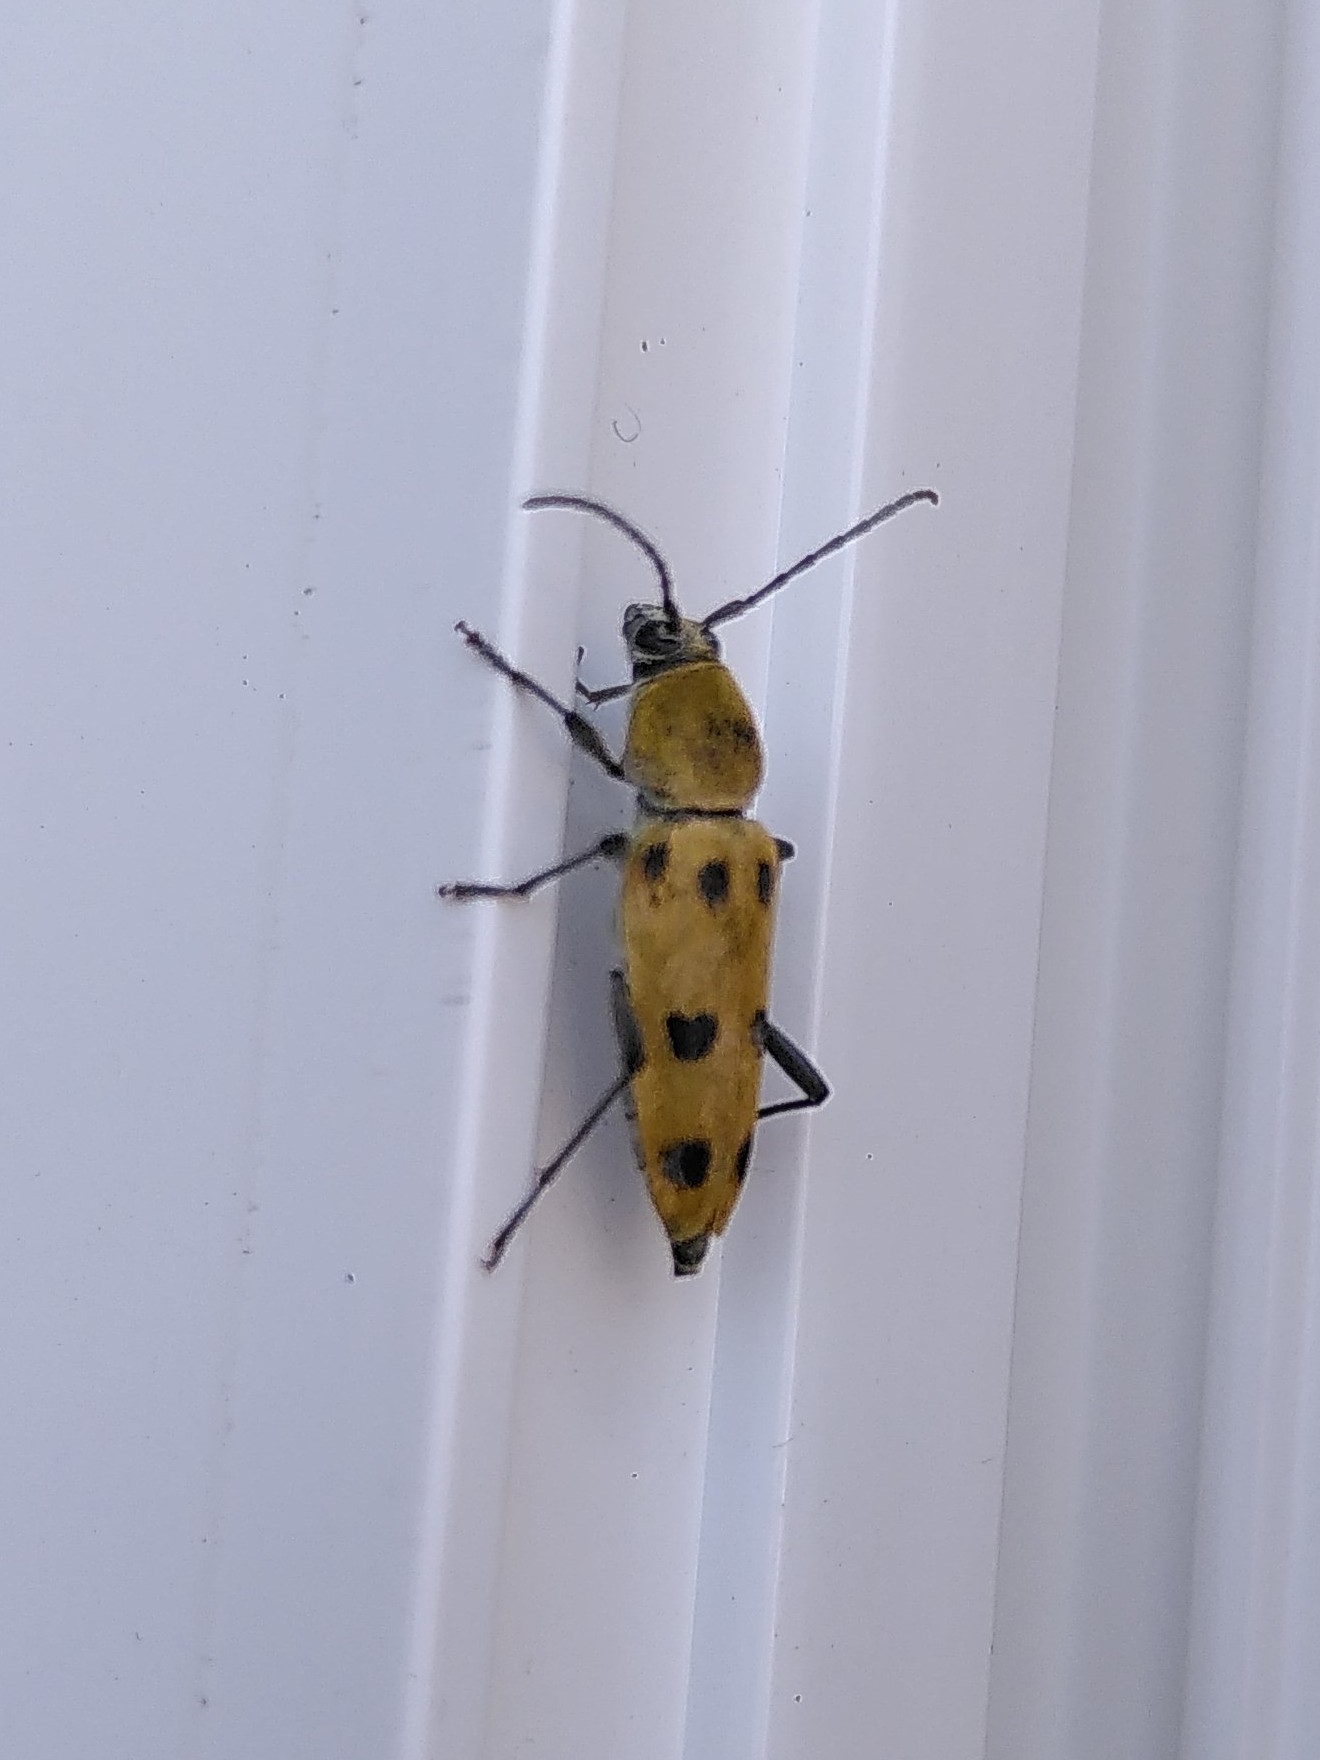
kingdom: Animalia
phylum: Arthropoda
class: Insecta
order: Coleoptera
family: Cerambycidae
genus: Chlorophorus
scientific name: Chlorophorus glabromaculatus
